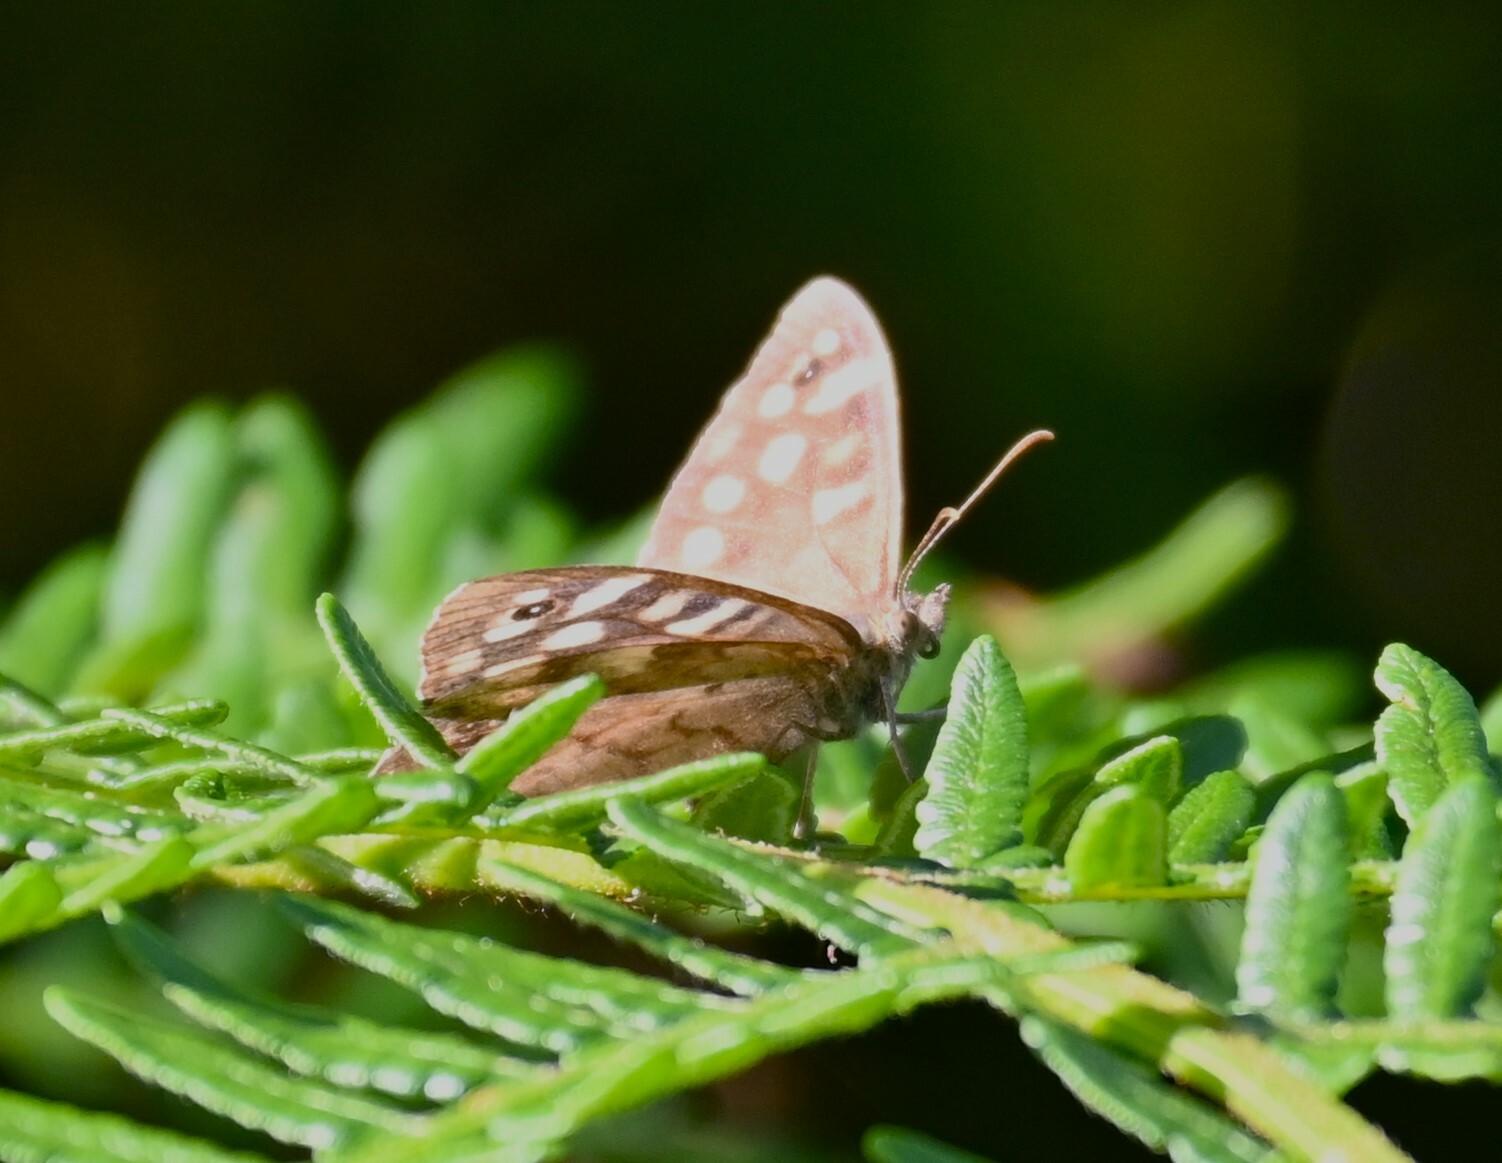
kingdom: Animalia
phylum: Arthropoda
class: Insecta
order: Lepidoptera
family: Nymphalidae
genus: Pararge
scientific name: Pararge aegeria
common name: Speckled wood
